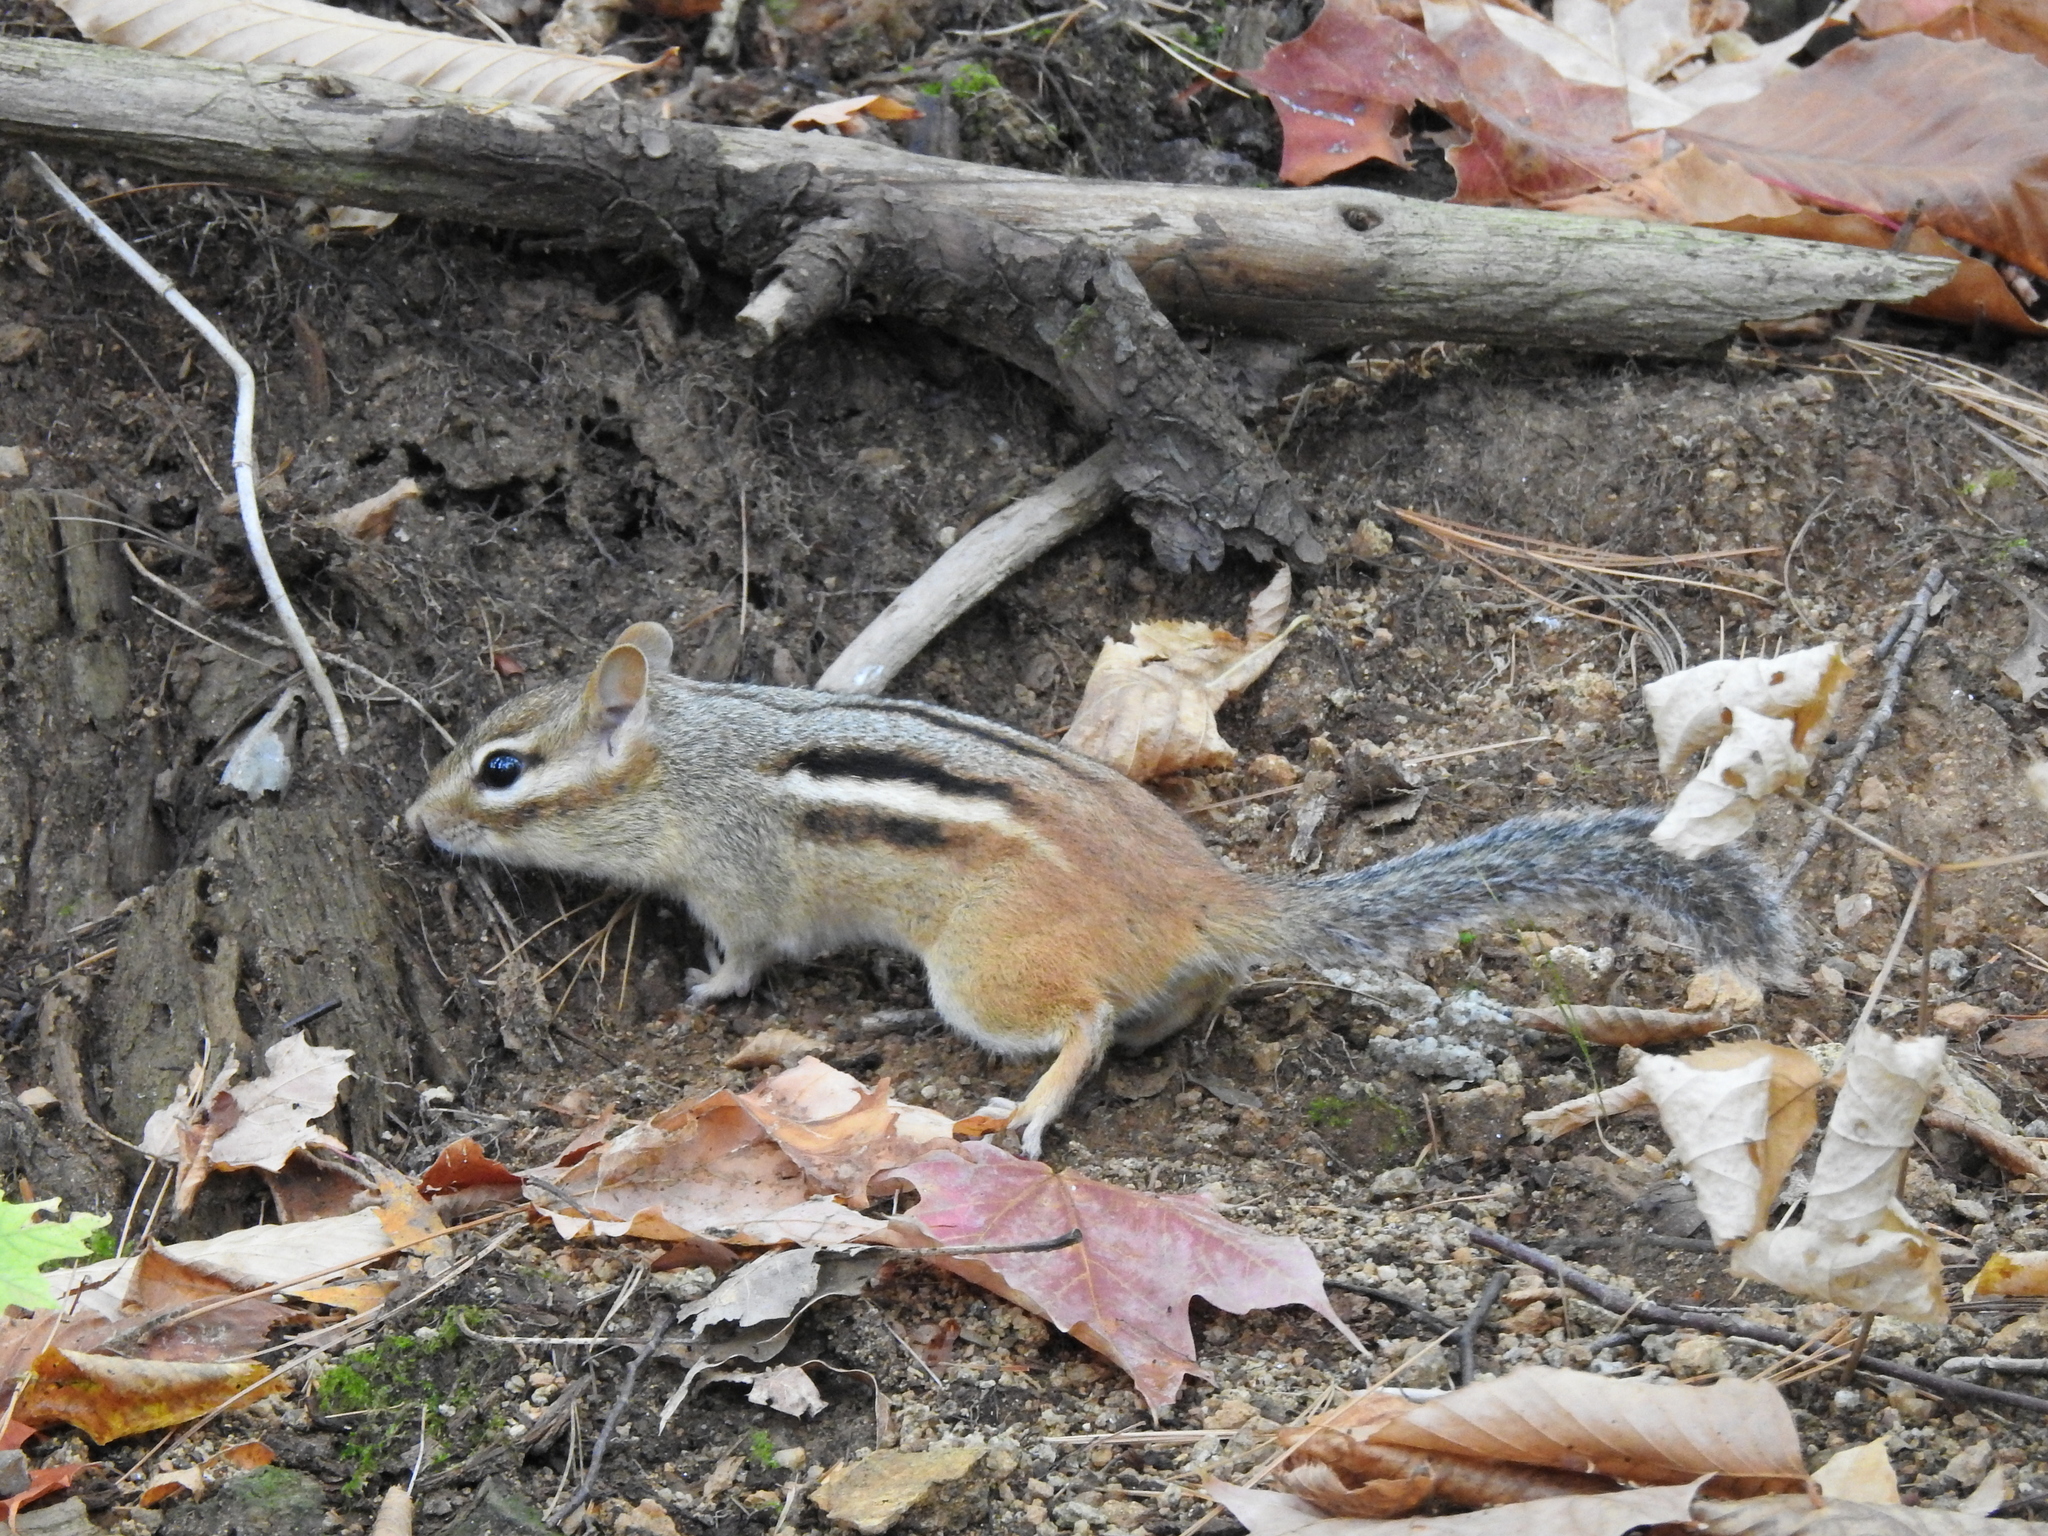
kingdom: Animalia
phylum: Chordata
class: Mammalia
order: Rodentia
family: Sciuridae
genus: Tamias
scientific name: Tamias striatus
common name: Eastern chipmunk
